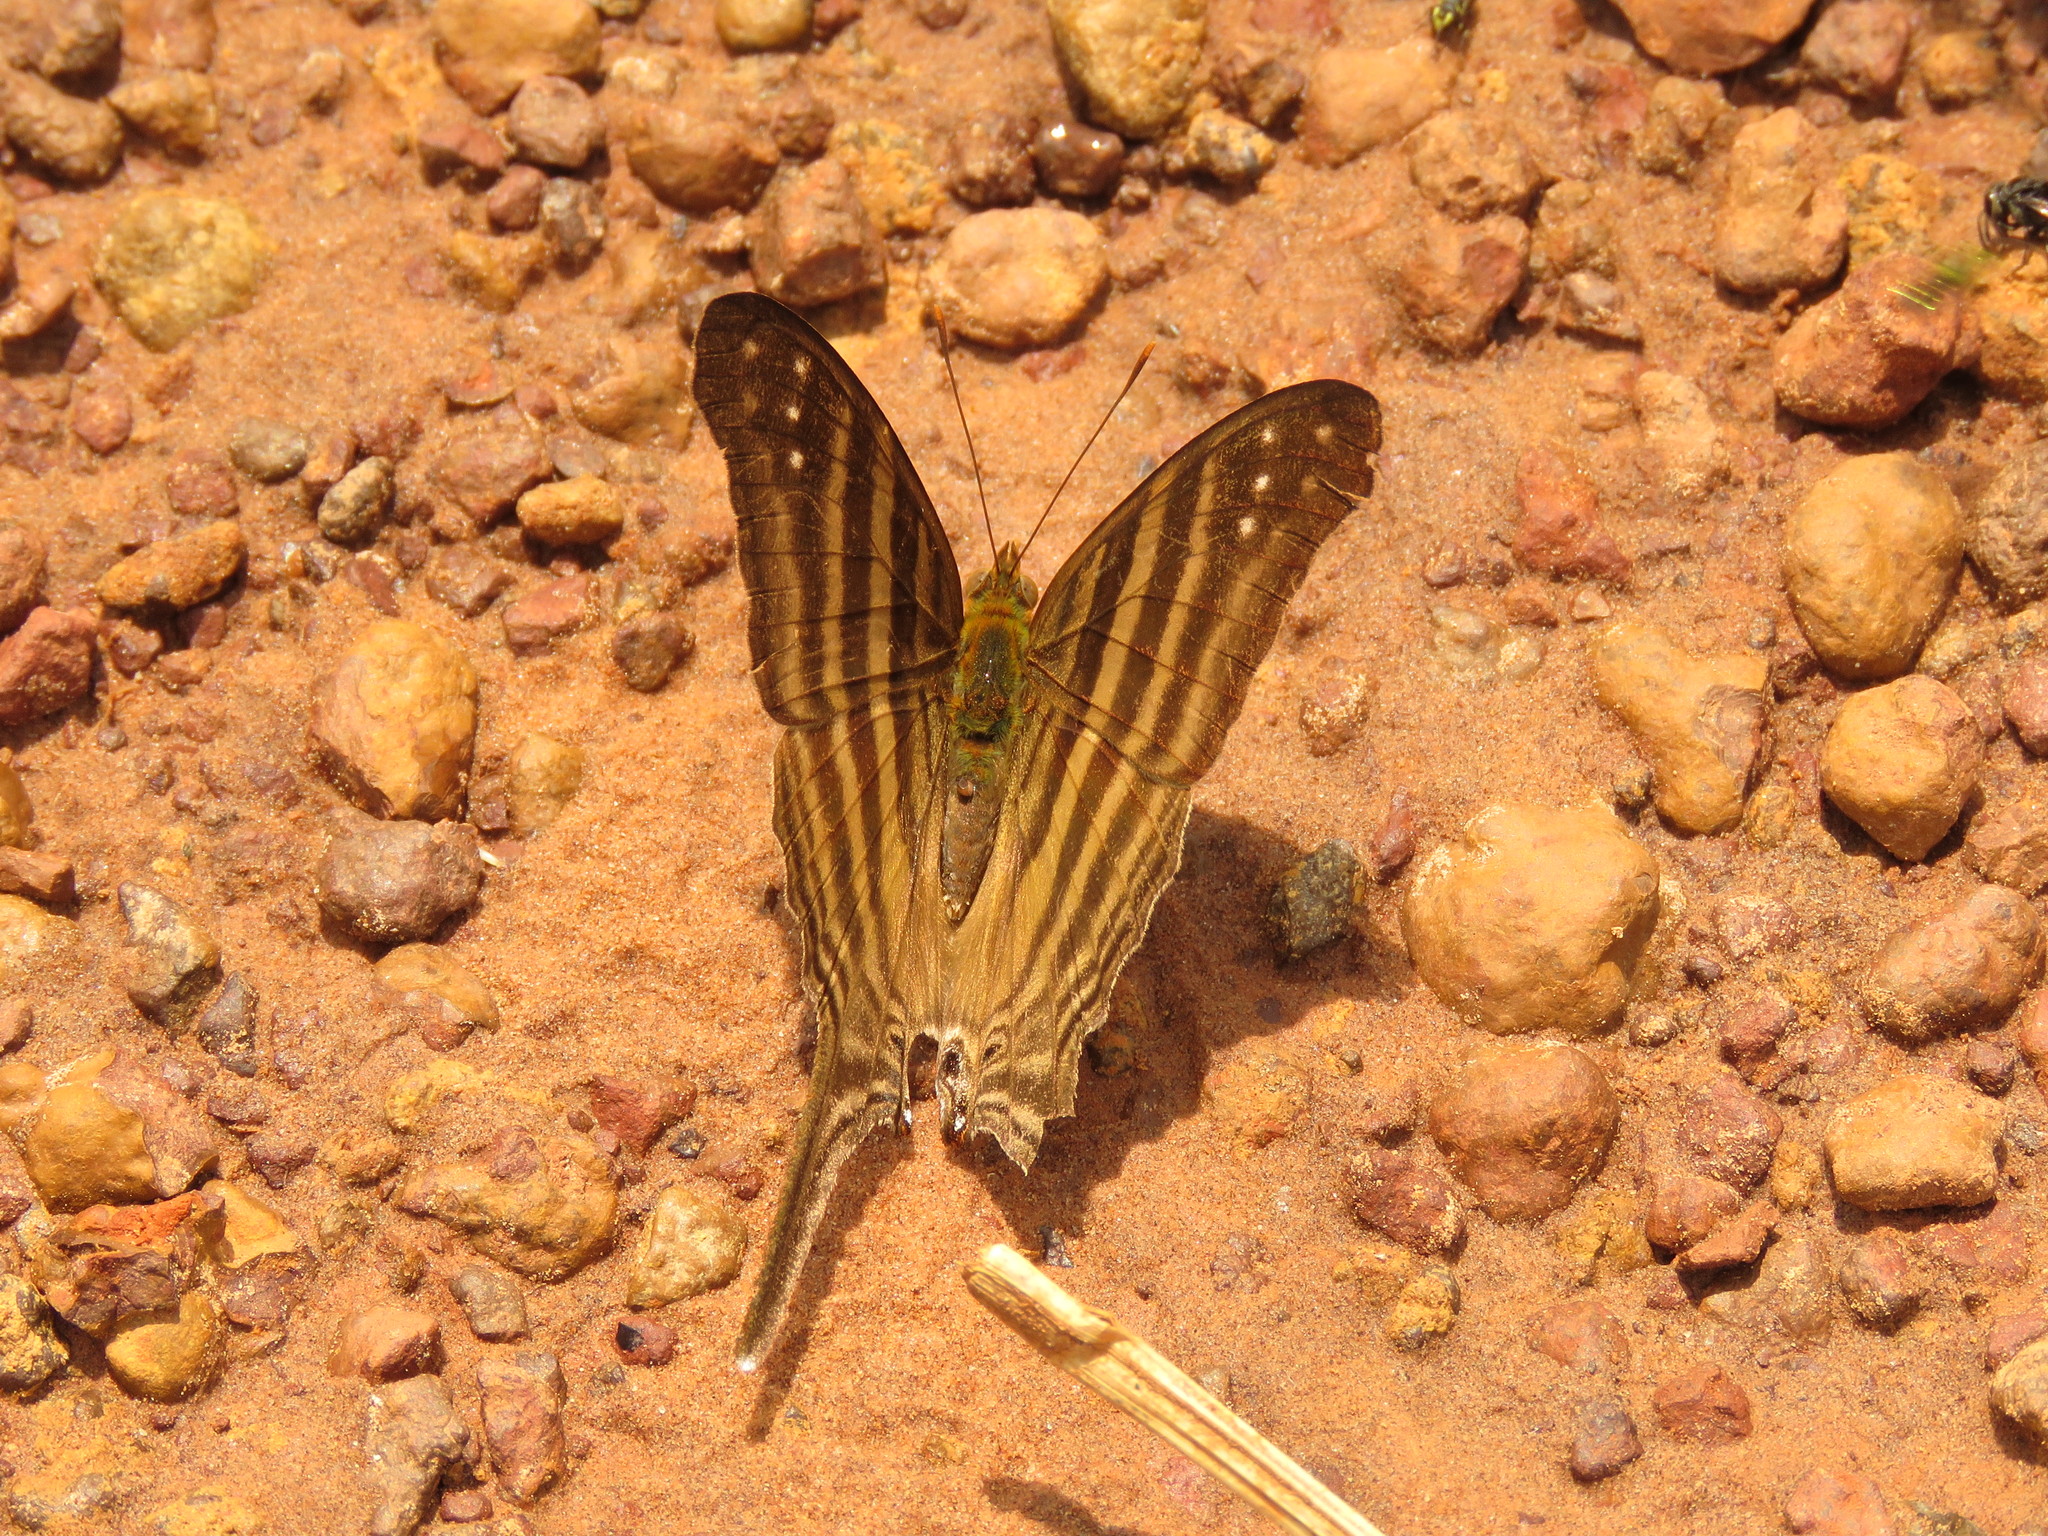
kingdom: Animalia
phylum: Arthropoda
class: Insecta
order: Lepidoptera
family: Nymphalidae
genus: Marpesia
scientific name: Marpesia chiron
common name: Many-banded daggerwing
